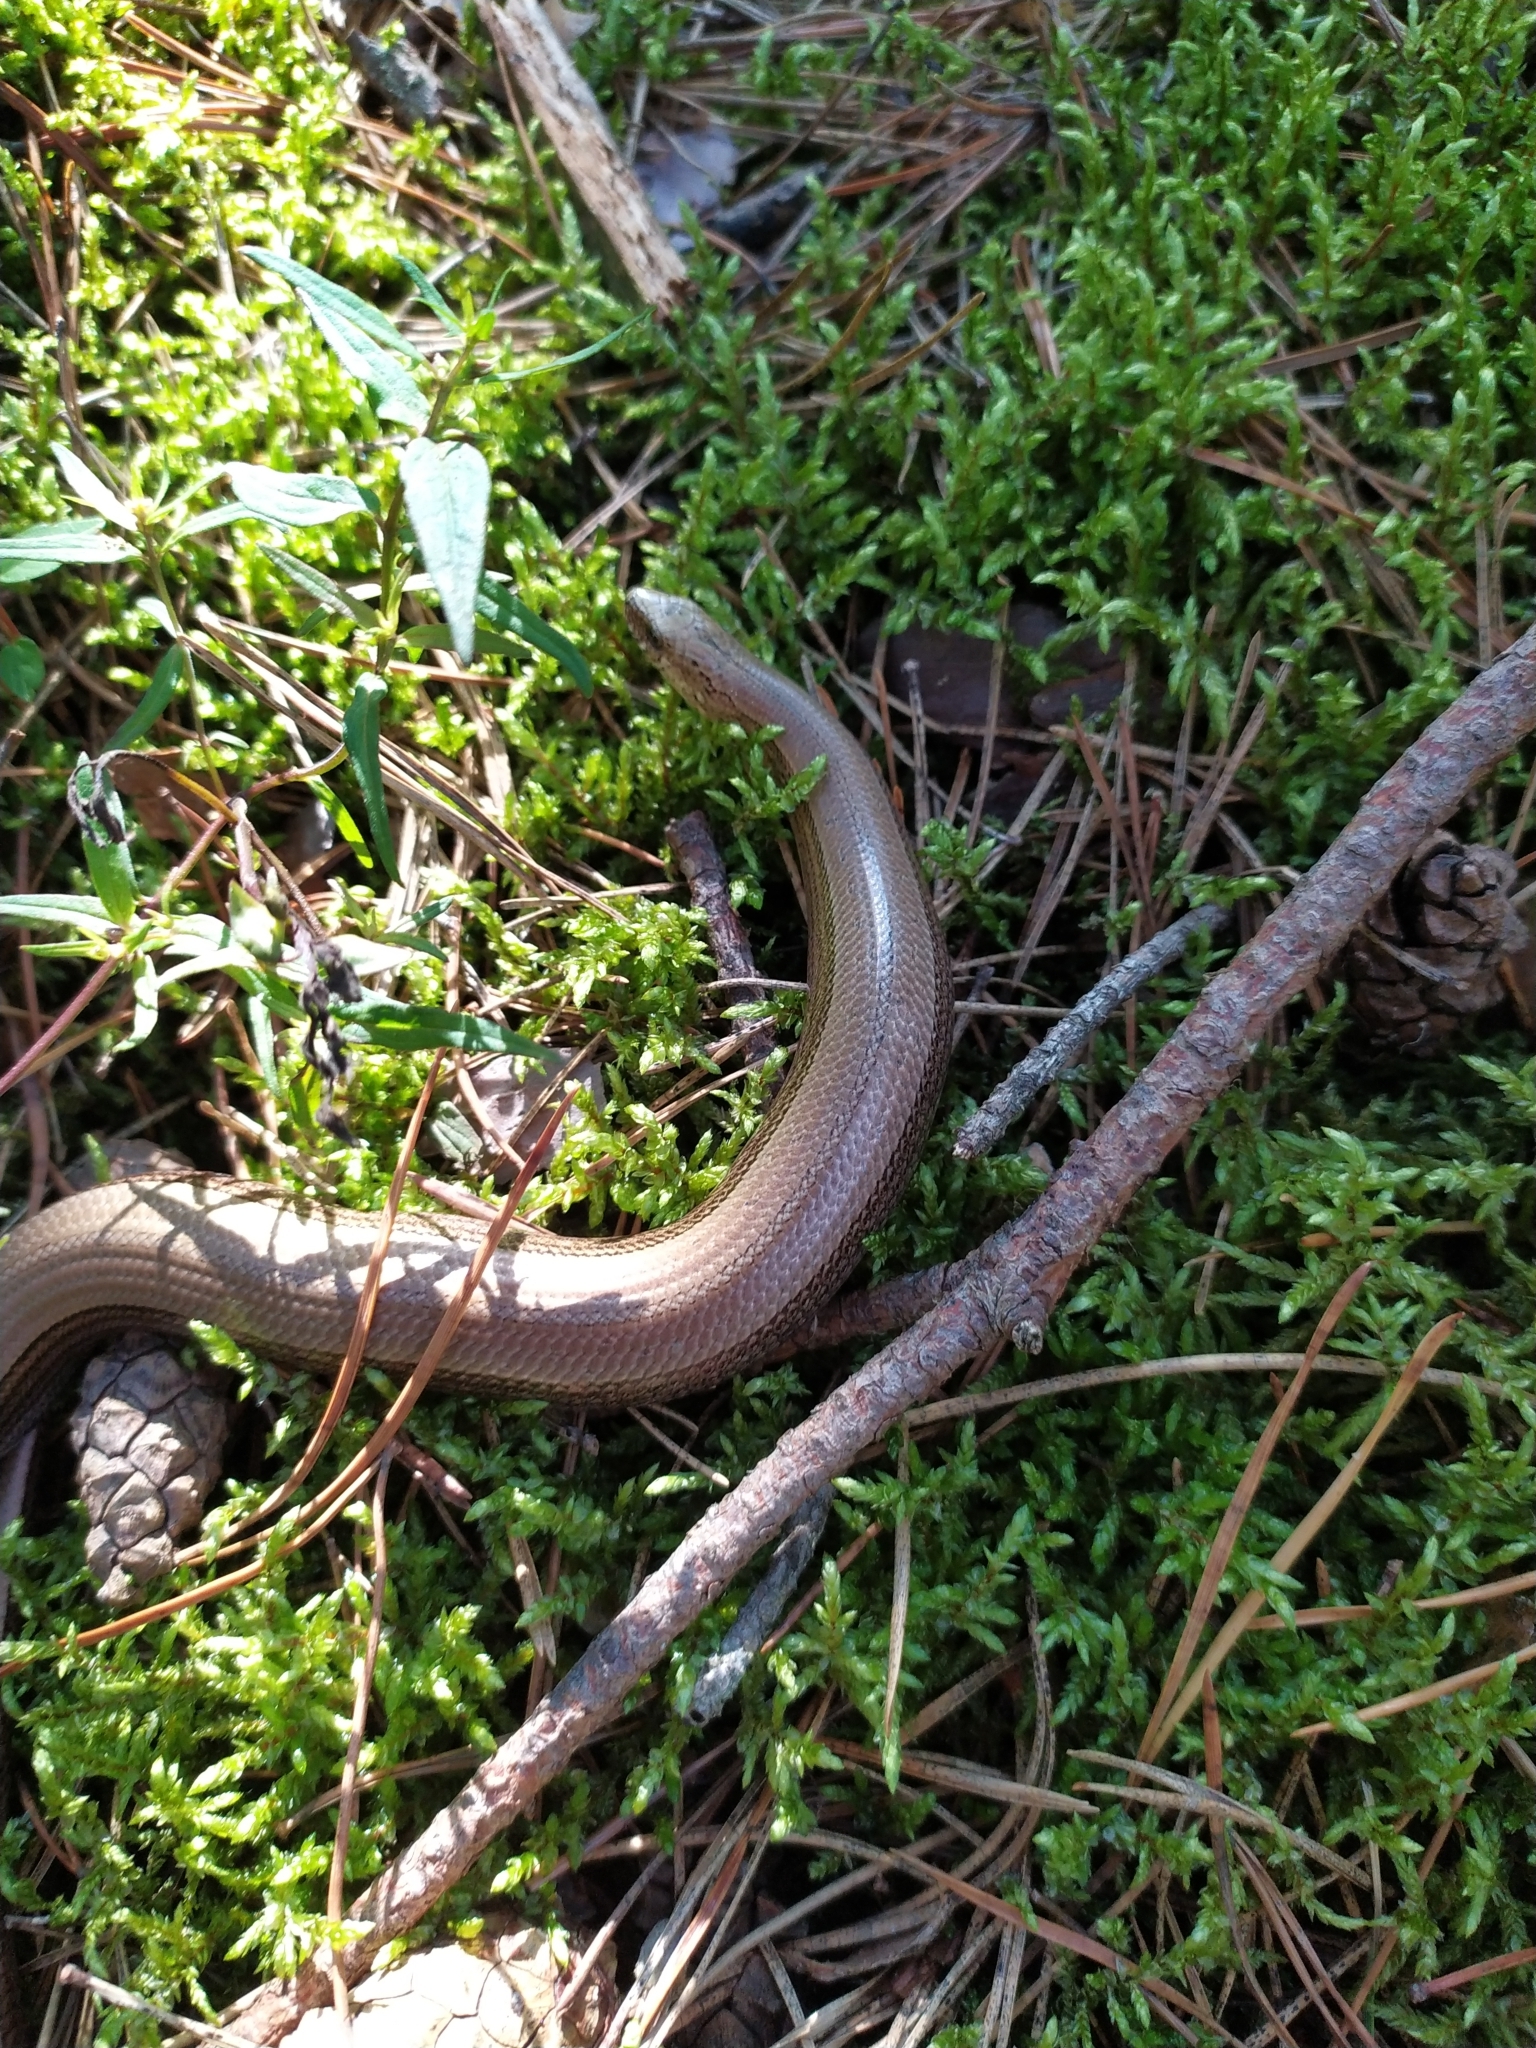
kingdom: Animalia
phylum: Chordata
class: Squamata
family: Anguidae
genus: Anguis
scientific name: Anguis colchica
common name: Slow worm
